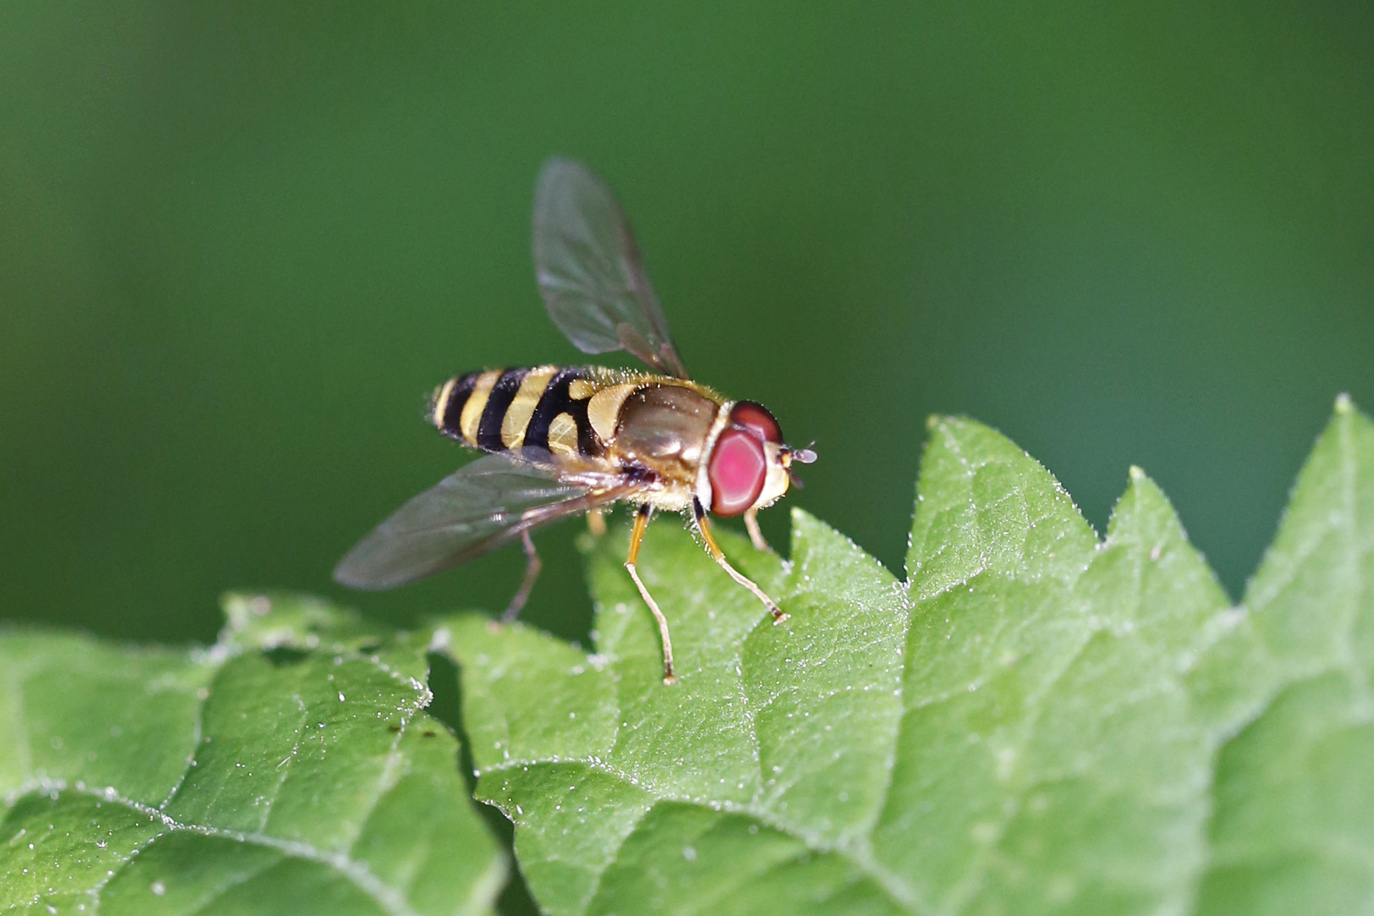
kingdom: Animalia
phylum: Arthropoda
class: Insecta
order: Diptera
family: Syrphidae
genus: Syrphus
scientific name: Syrphus torvus
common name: Hairy-eyed flower fly
